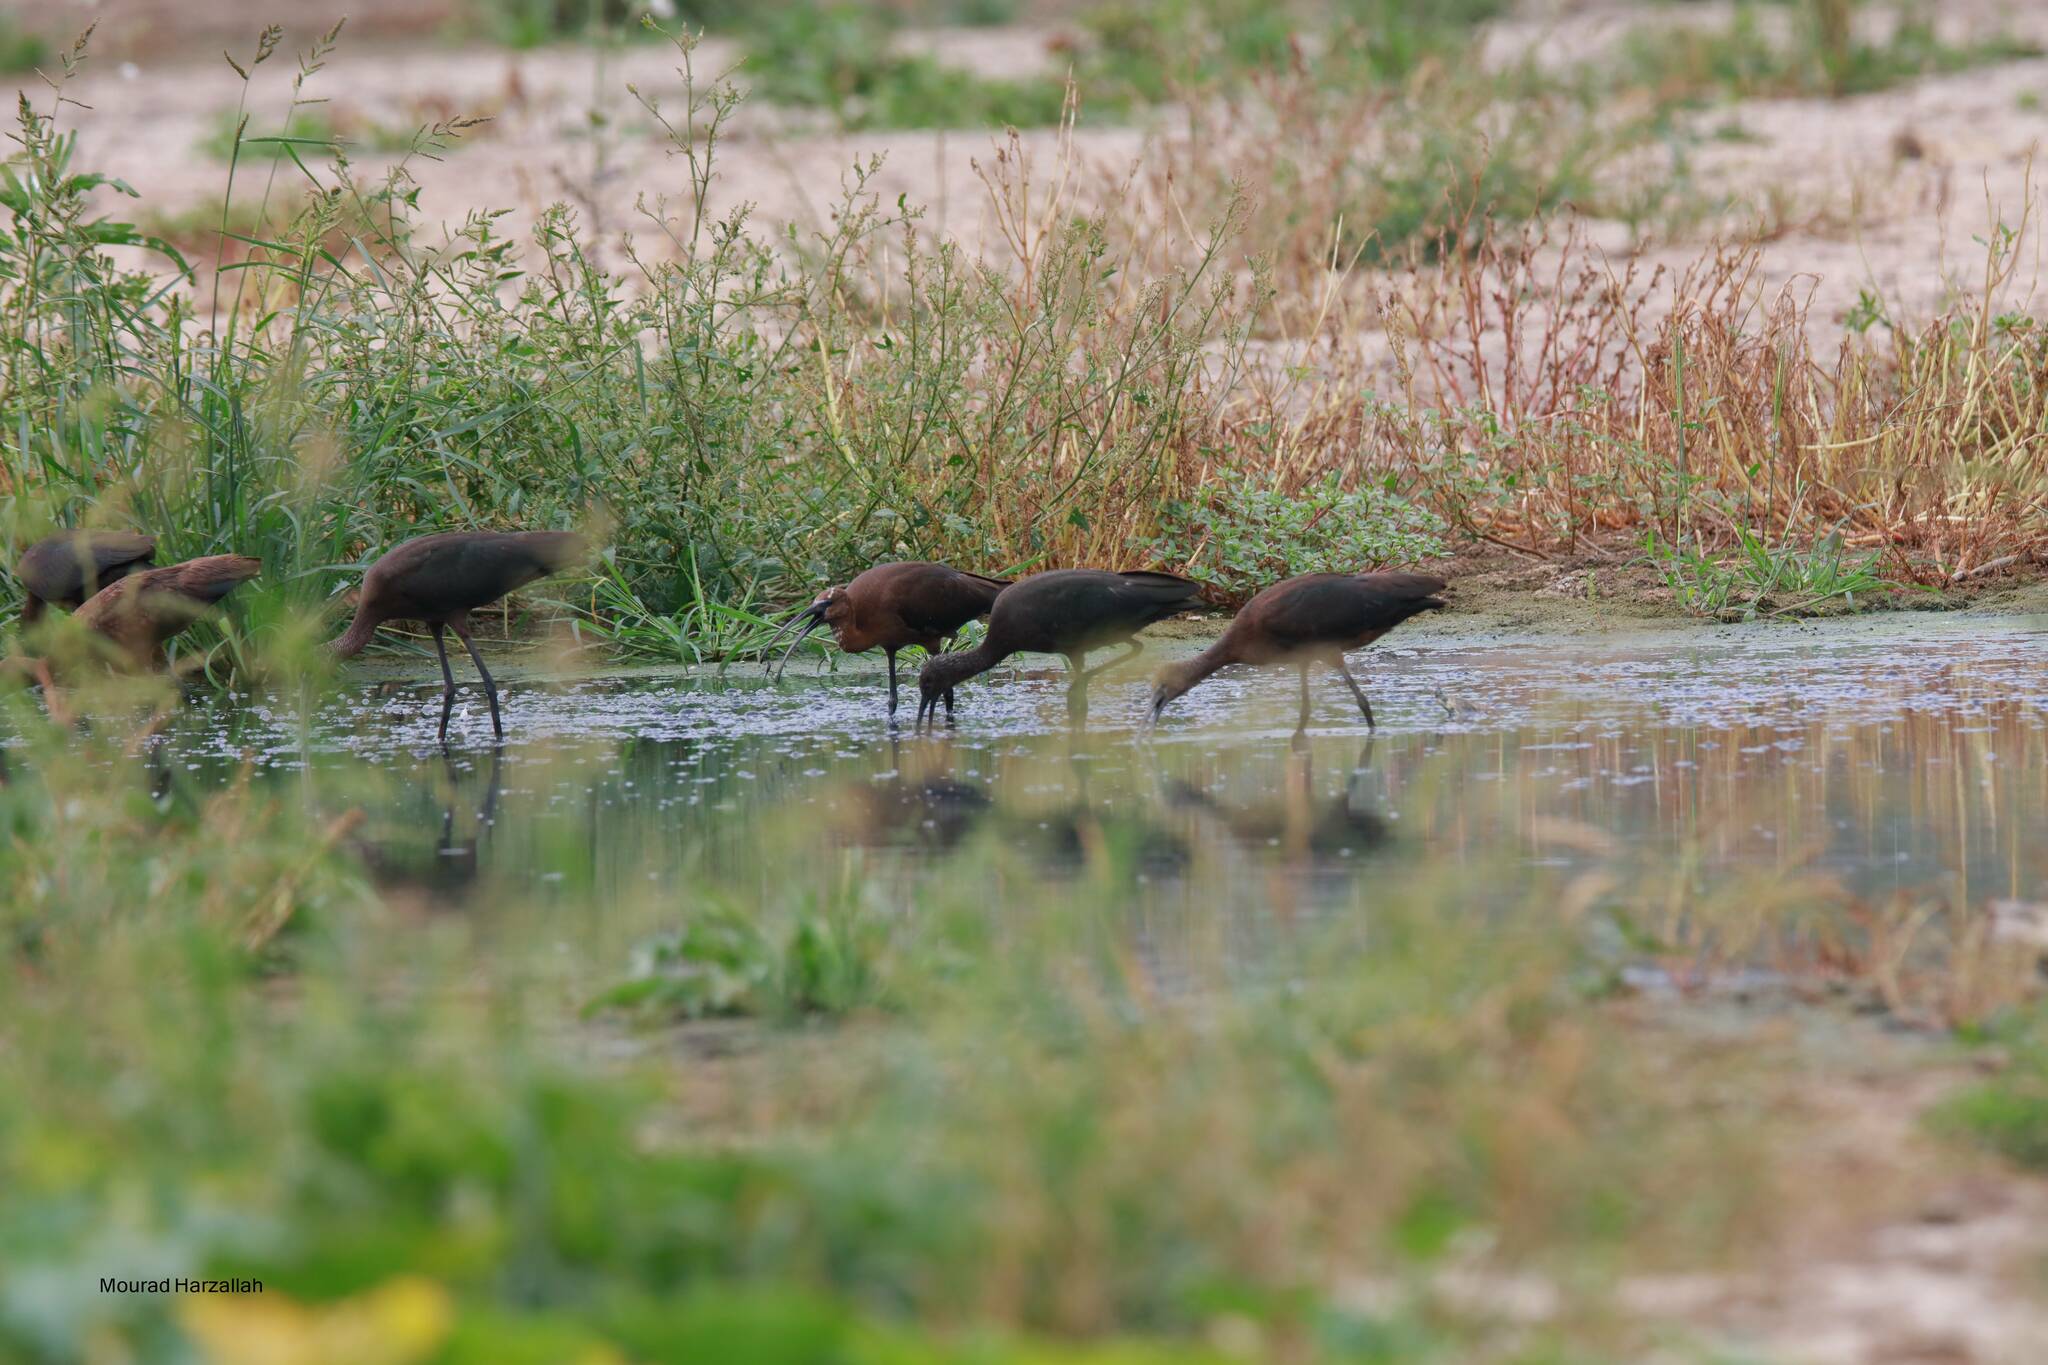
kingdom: Animalia
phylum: Chordata
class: Aves
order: Pelecaniformes
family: Threskiornithidae
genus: Plegadis
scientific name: Plegadis falcinellus
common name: Glossy ibis
